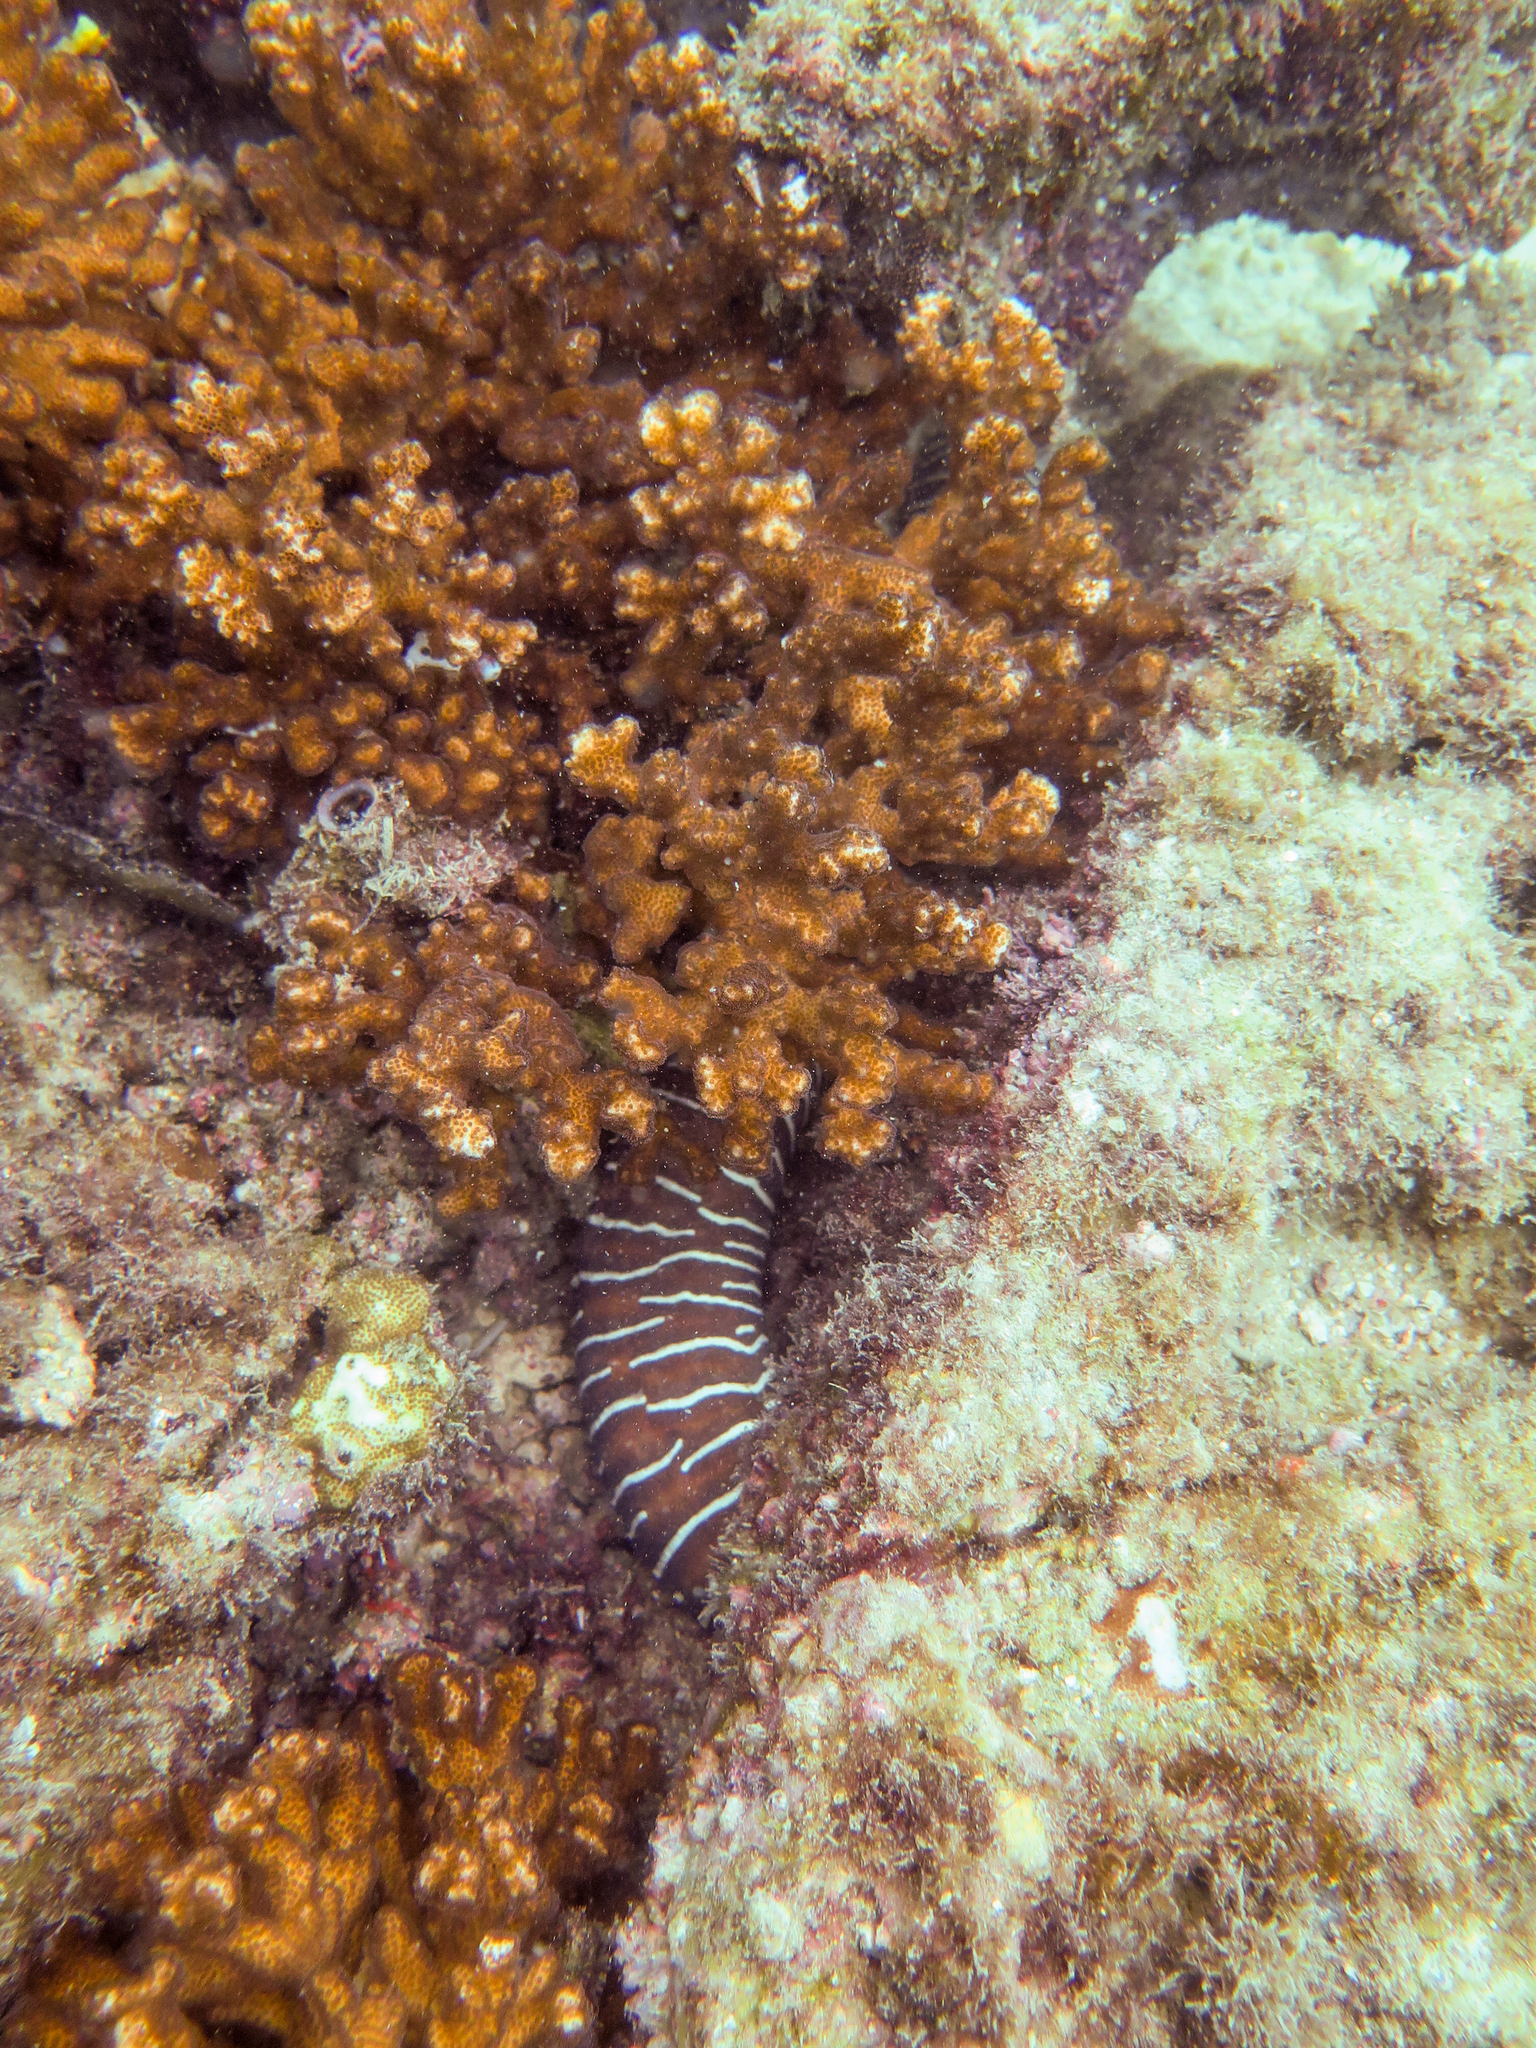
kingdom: Animalia
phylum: Chordata
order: Anguilliformes
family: Muraenidae
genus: Gymnomuraena
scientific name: Gymnomuraena zebra
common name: Zebra moray
